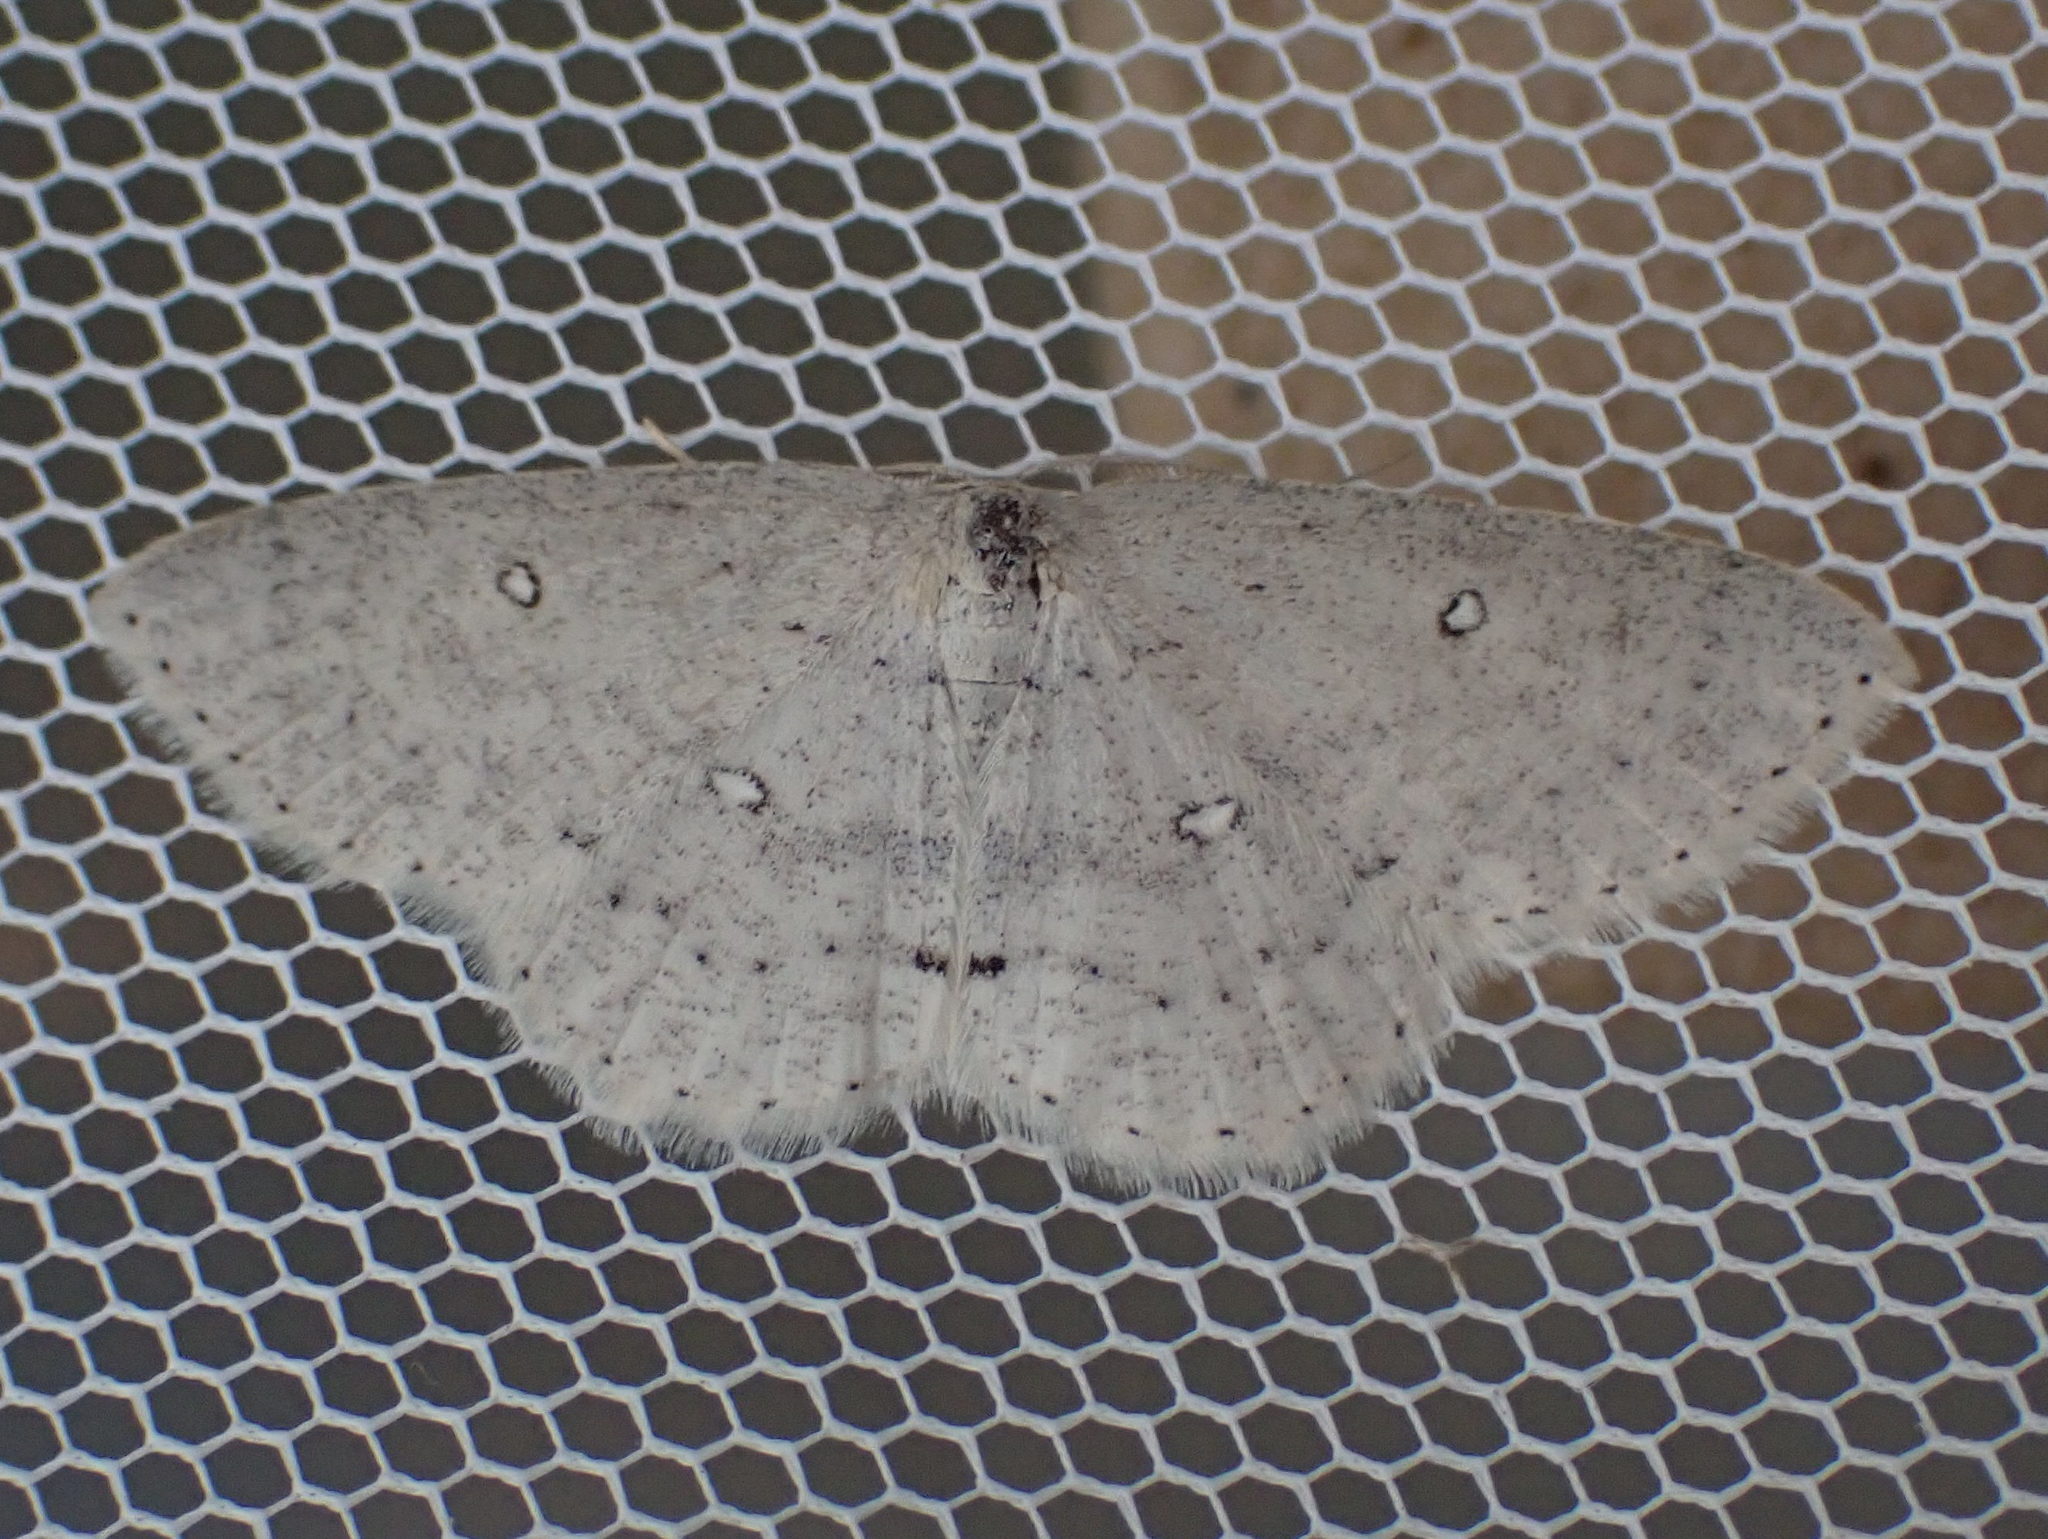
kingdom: Animalia
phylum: Arthropoda
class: Insecta
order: Lepidoptera
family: Geometridae
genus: Cyclophora
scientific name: Cyclophora pendulinaria
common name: Sweet fern geometer
